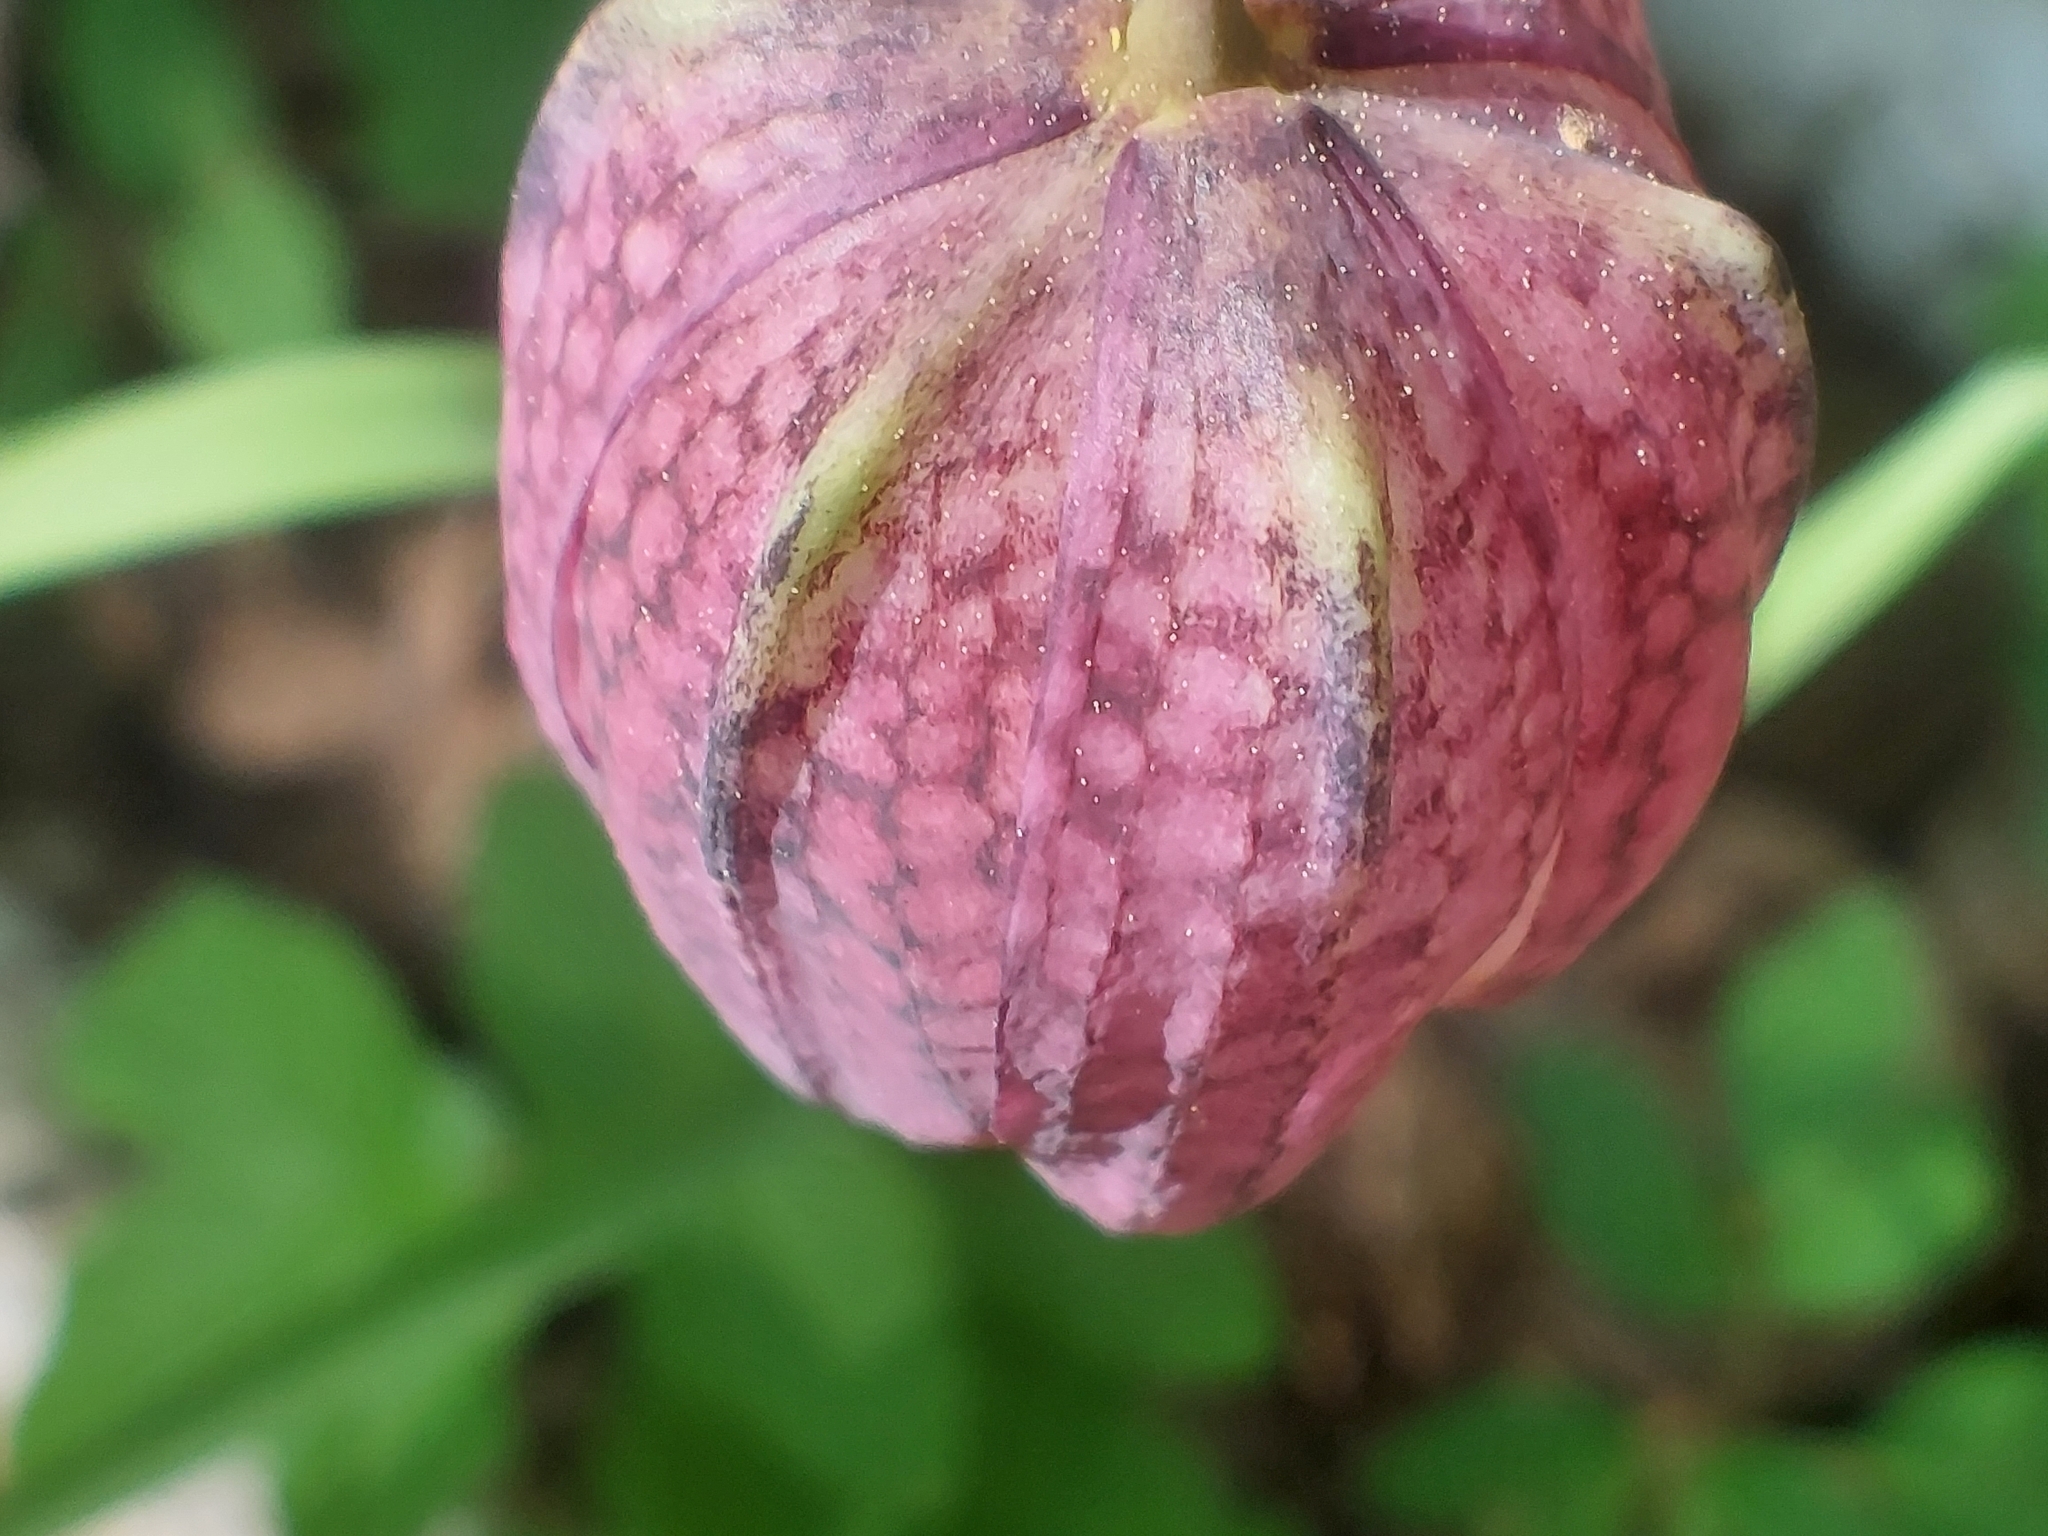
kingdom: Plantae
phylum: Tracheophyta
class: Liliopsida
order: Liliales
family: Liliaceae
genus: Fritillaria
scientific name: Fritillaria meleagris
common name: Fritillary
